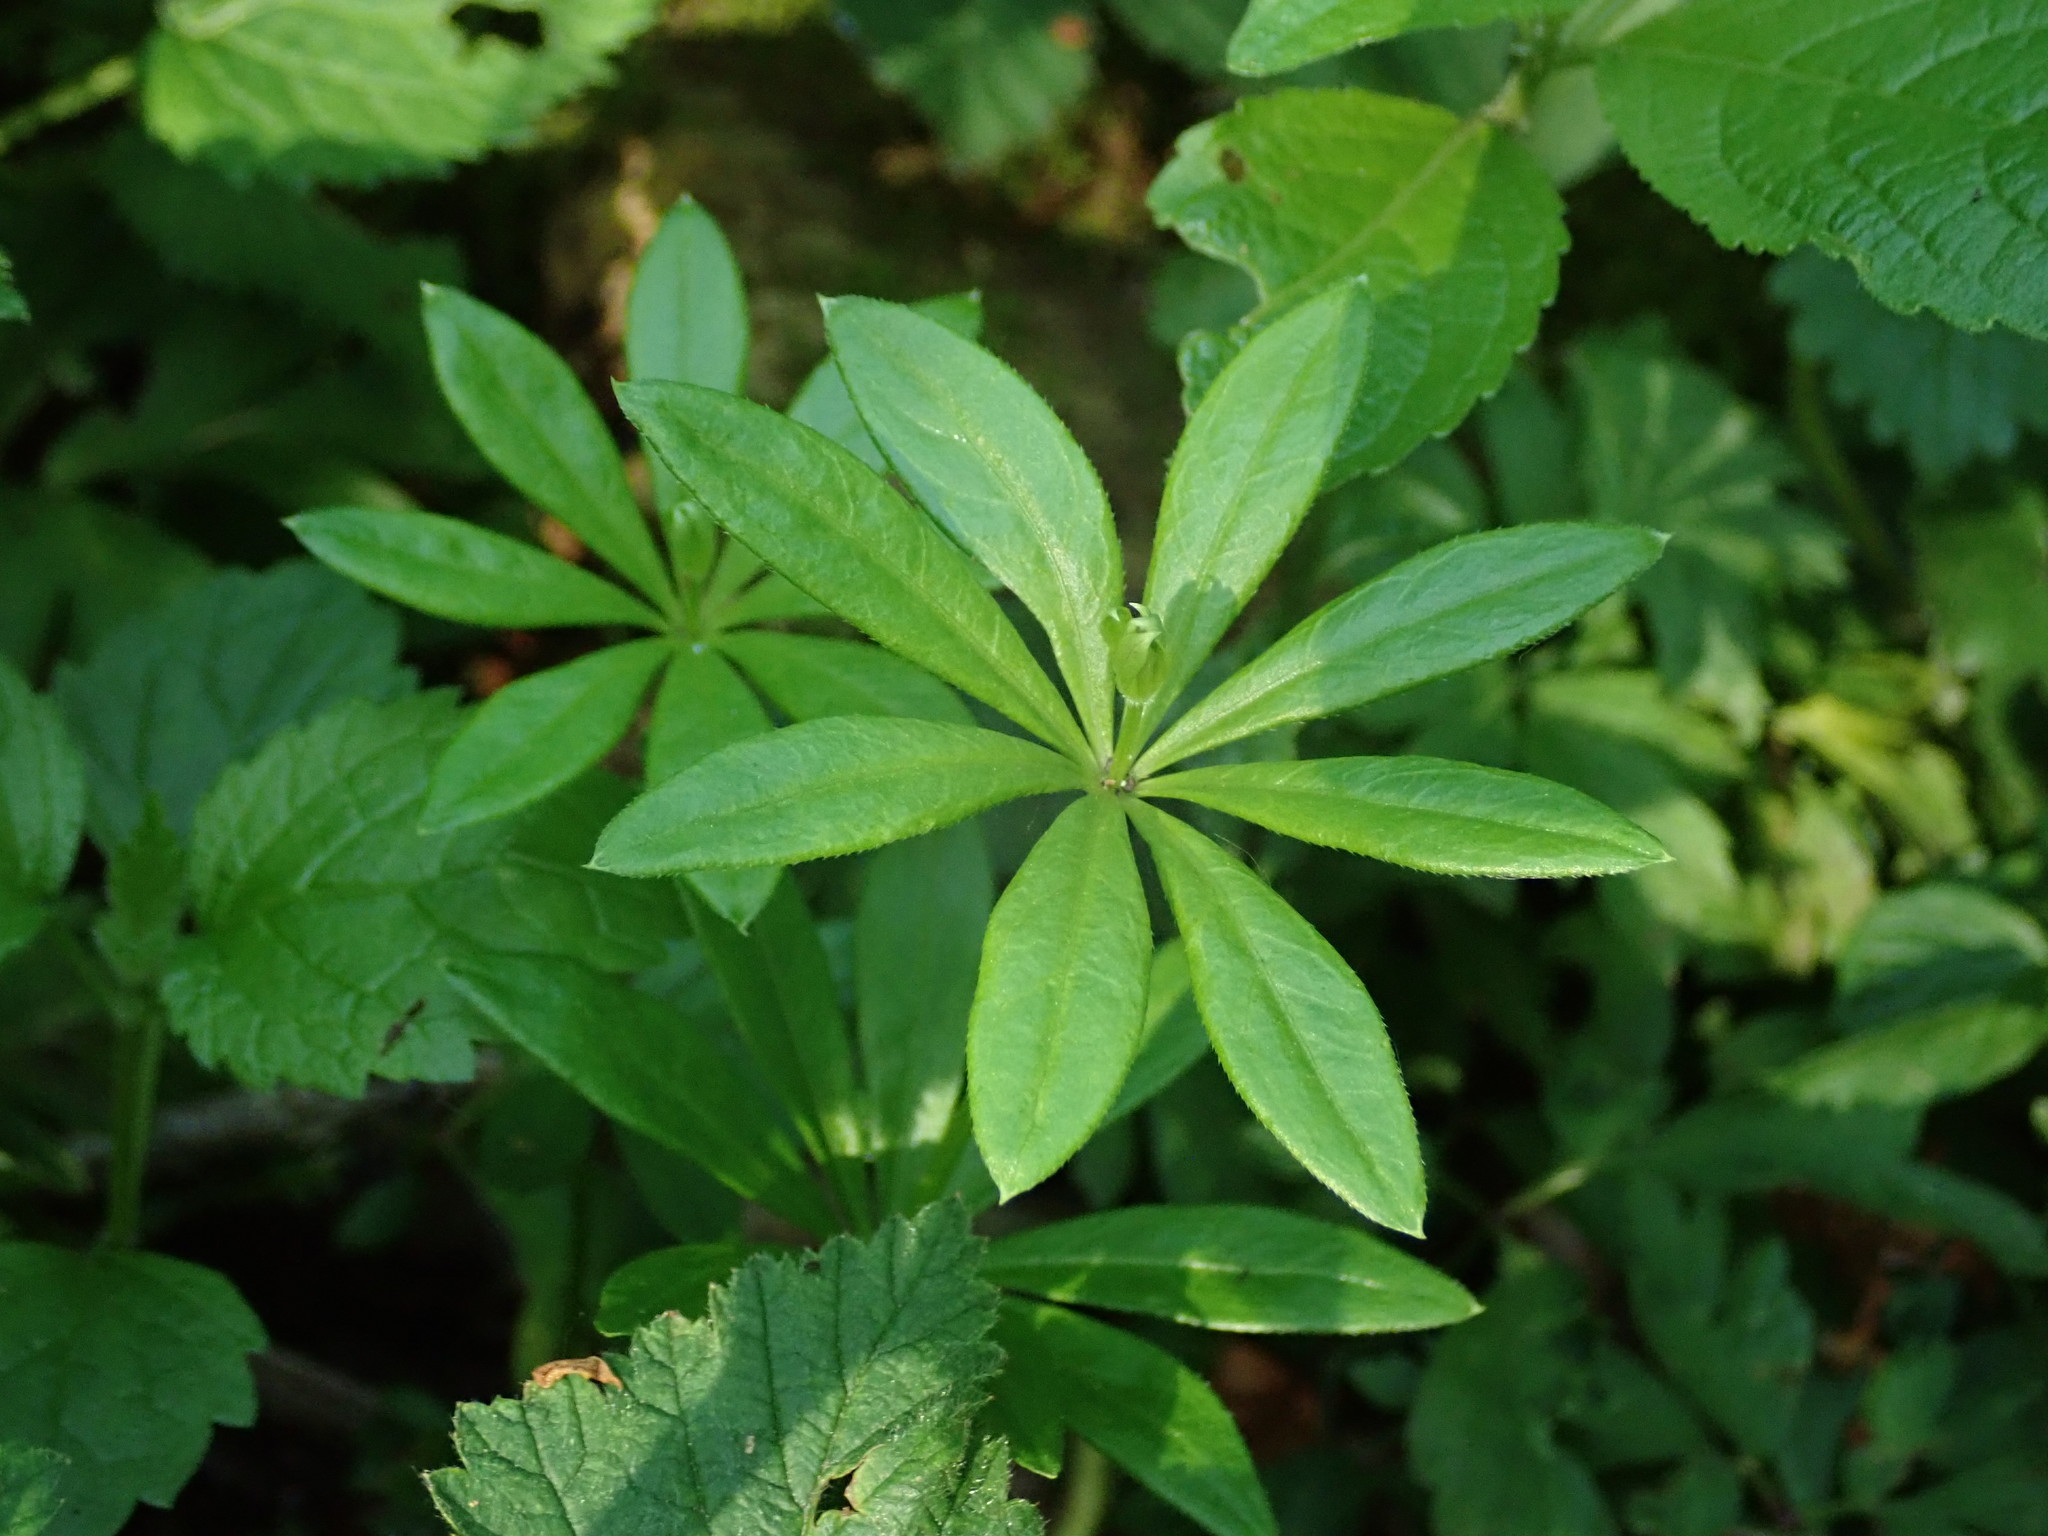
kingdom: Plantae
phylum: Tracheophyta
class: Magnoliopsida
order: Gentianales
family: Rubiaceae
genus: Galium
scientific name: Galium odoratum
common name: Sweet woodruff
